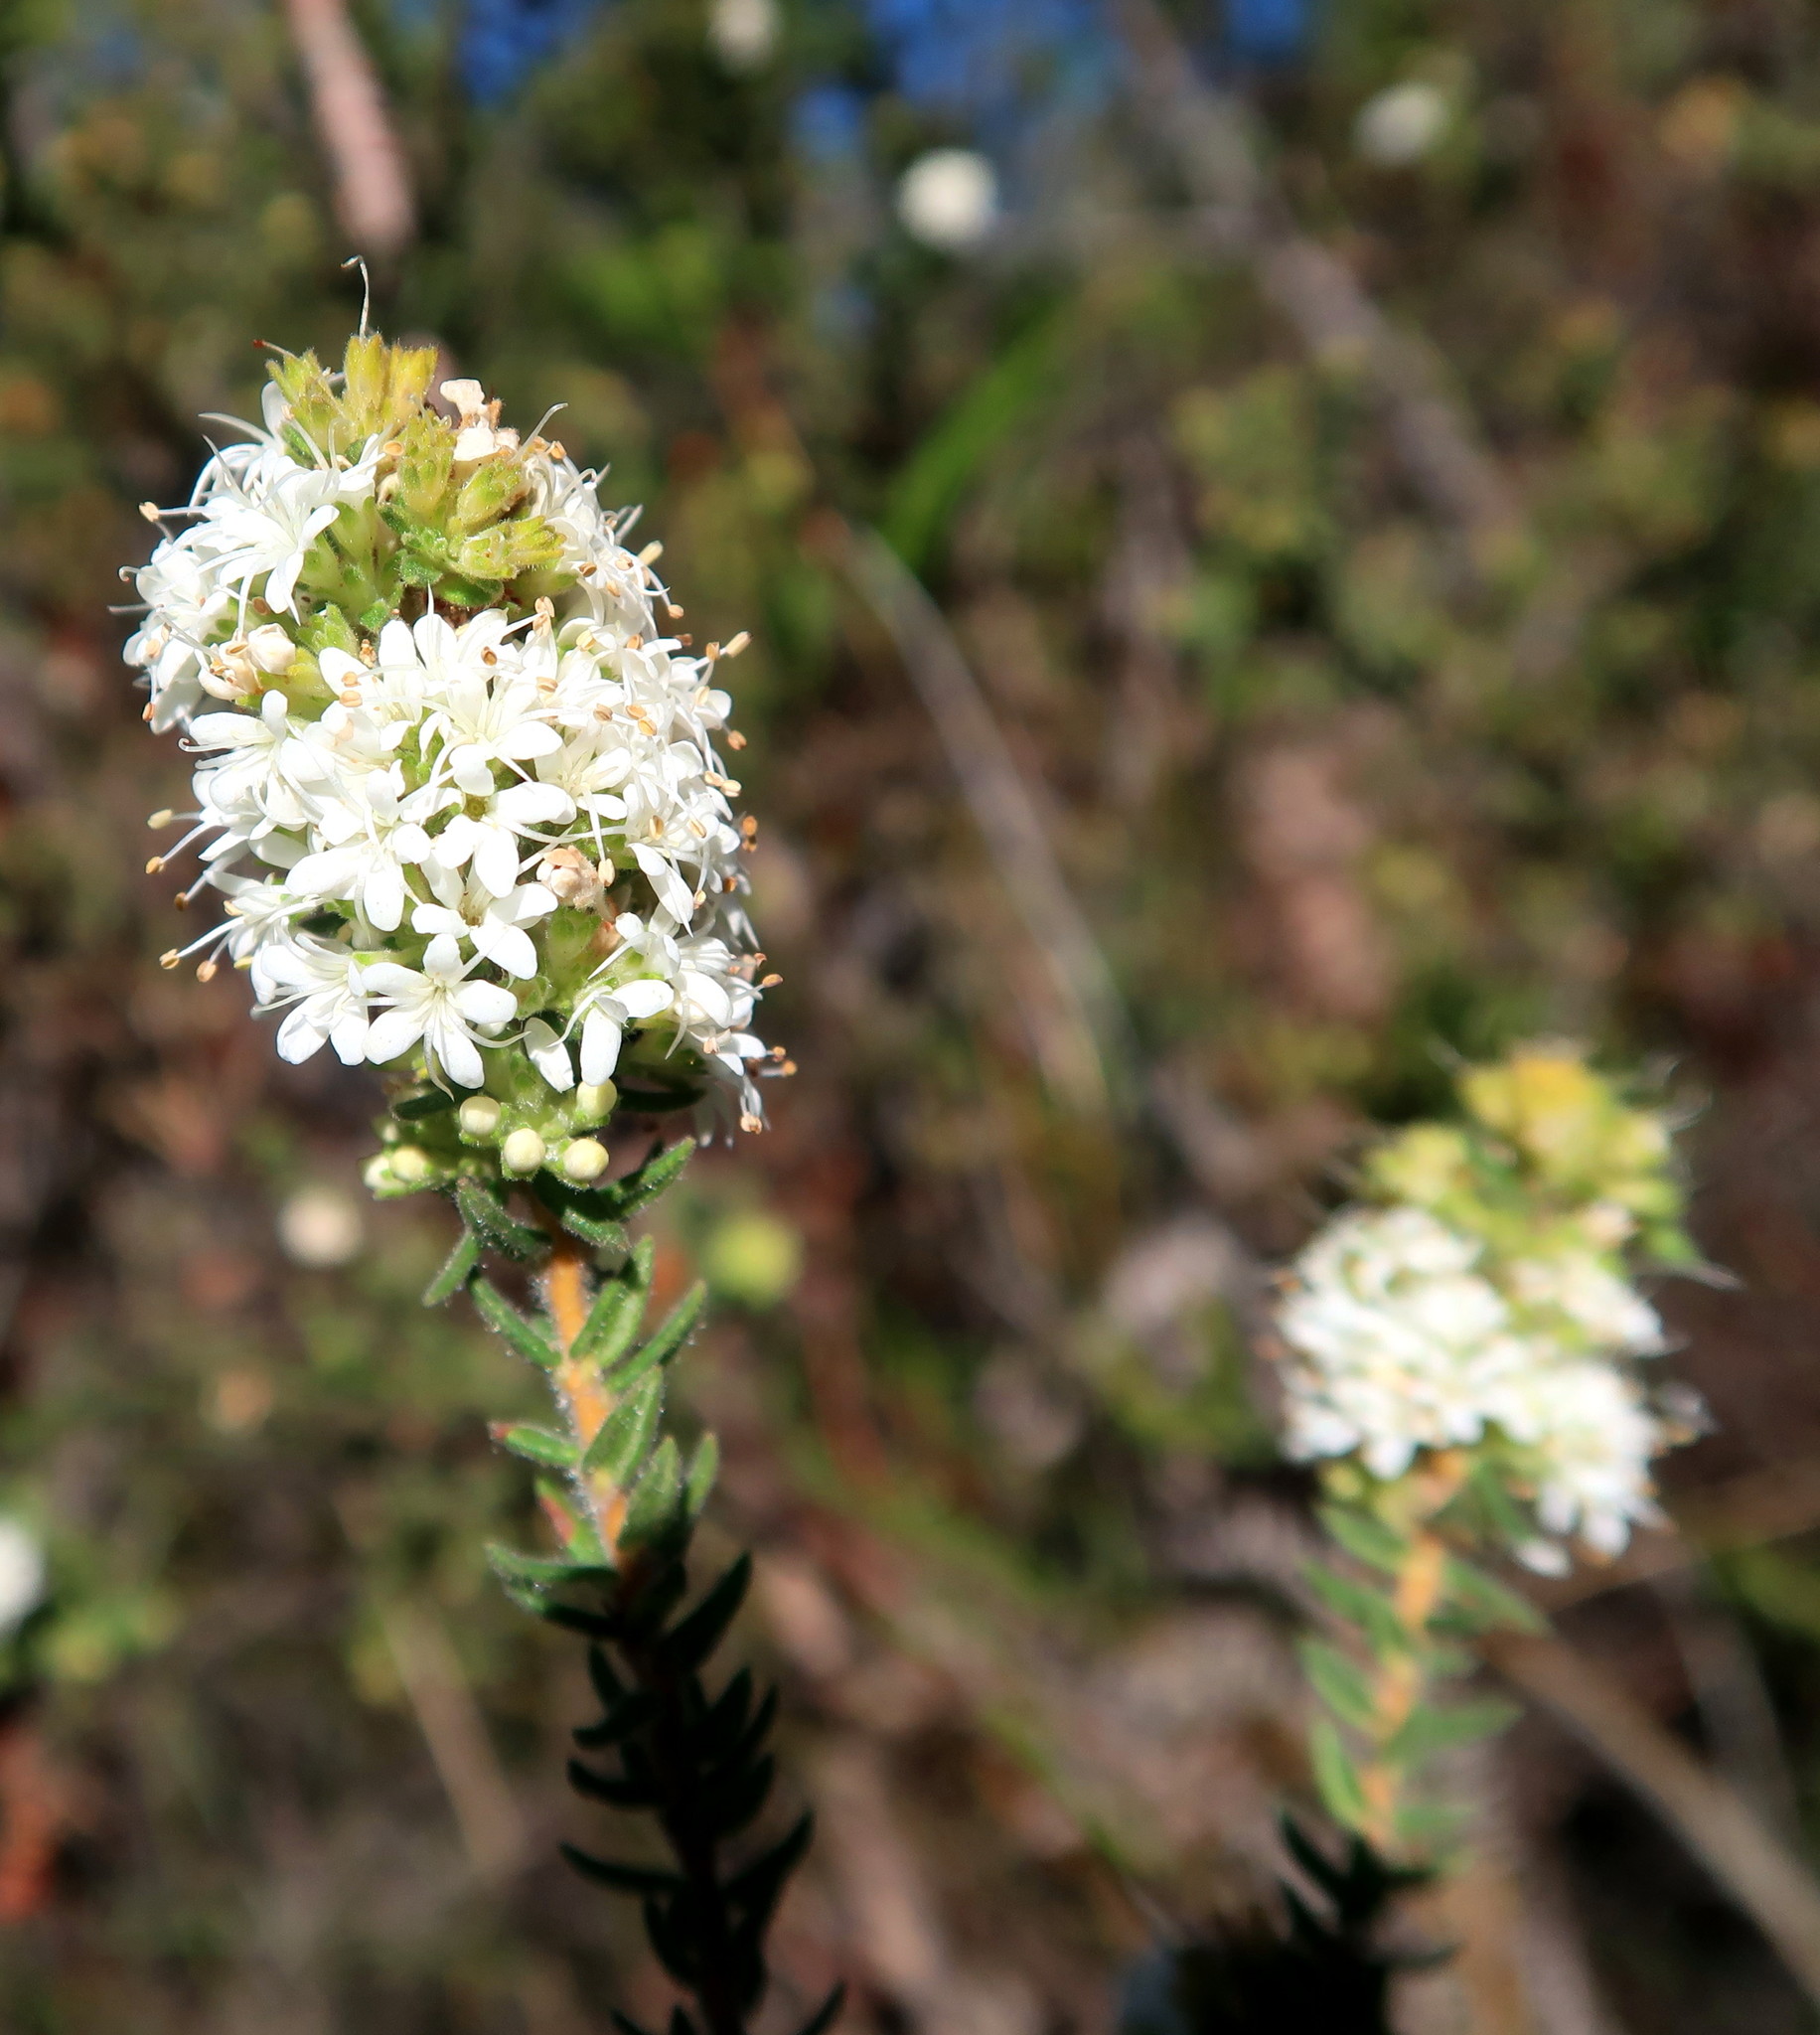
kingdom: Plantae
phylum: Tracheophyta
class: Magnoliopsida
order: Sapindales
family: Rutaceae
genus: Agathosma
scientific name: Agathosma planifolia
